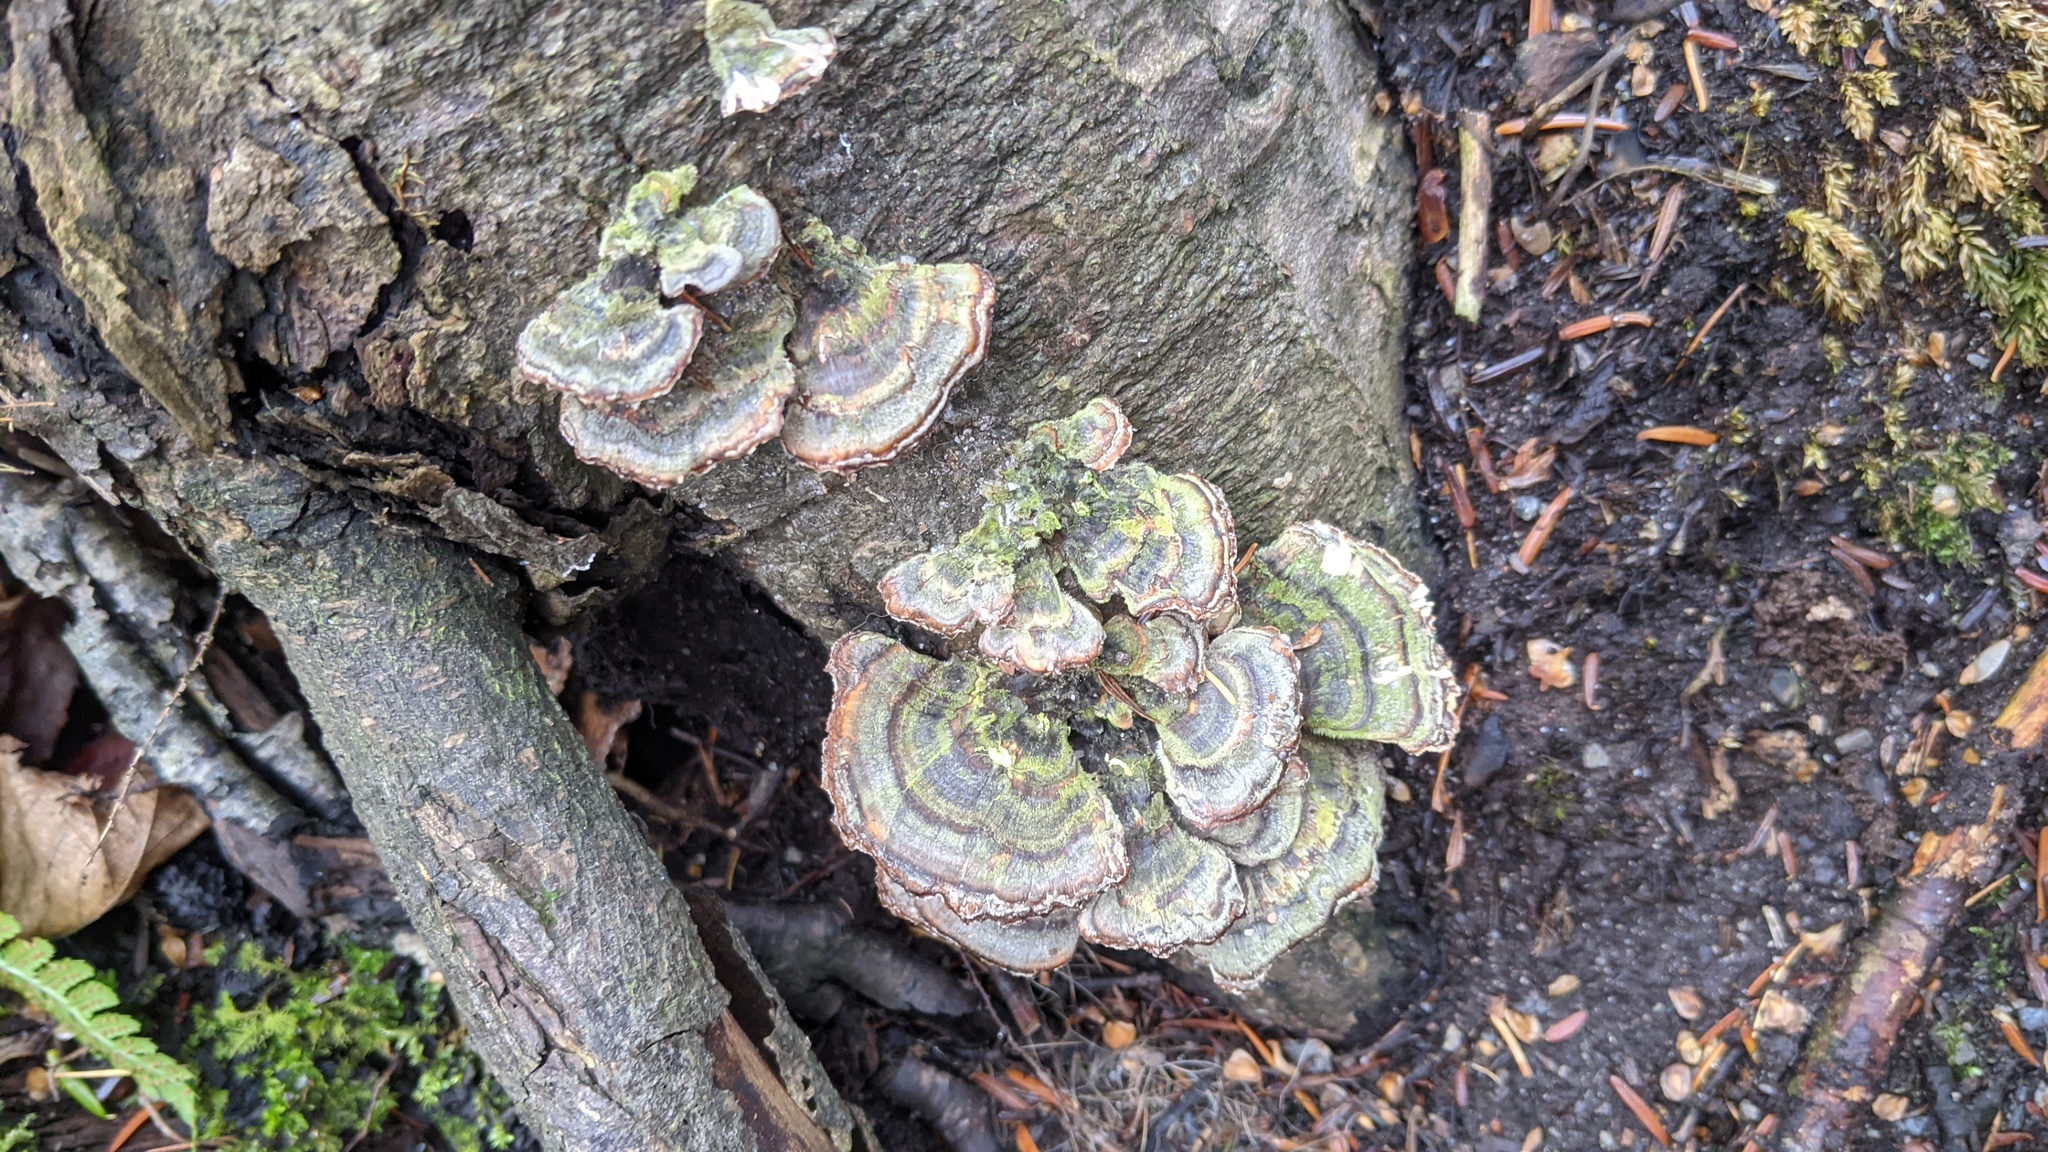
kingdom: Fungi
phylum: Basidiomycota
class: Agaricomycetes
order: Polyporales
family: Polyporaceae
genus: Trametes
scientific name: Trametes versicolor
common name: Turkeytail
